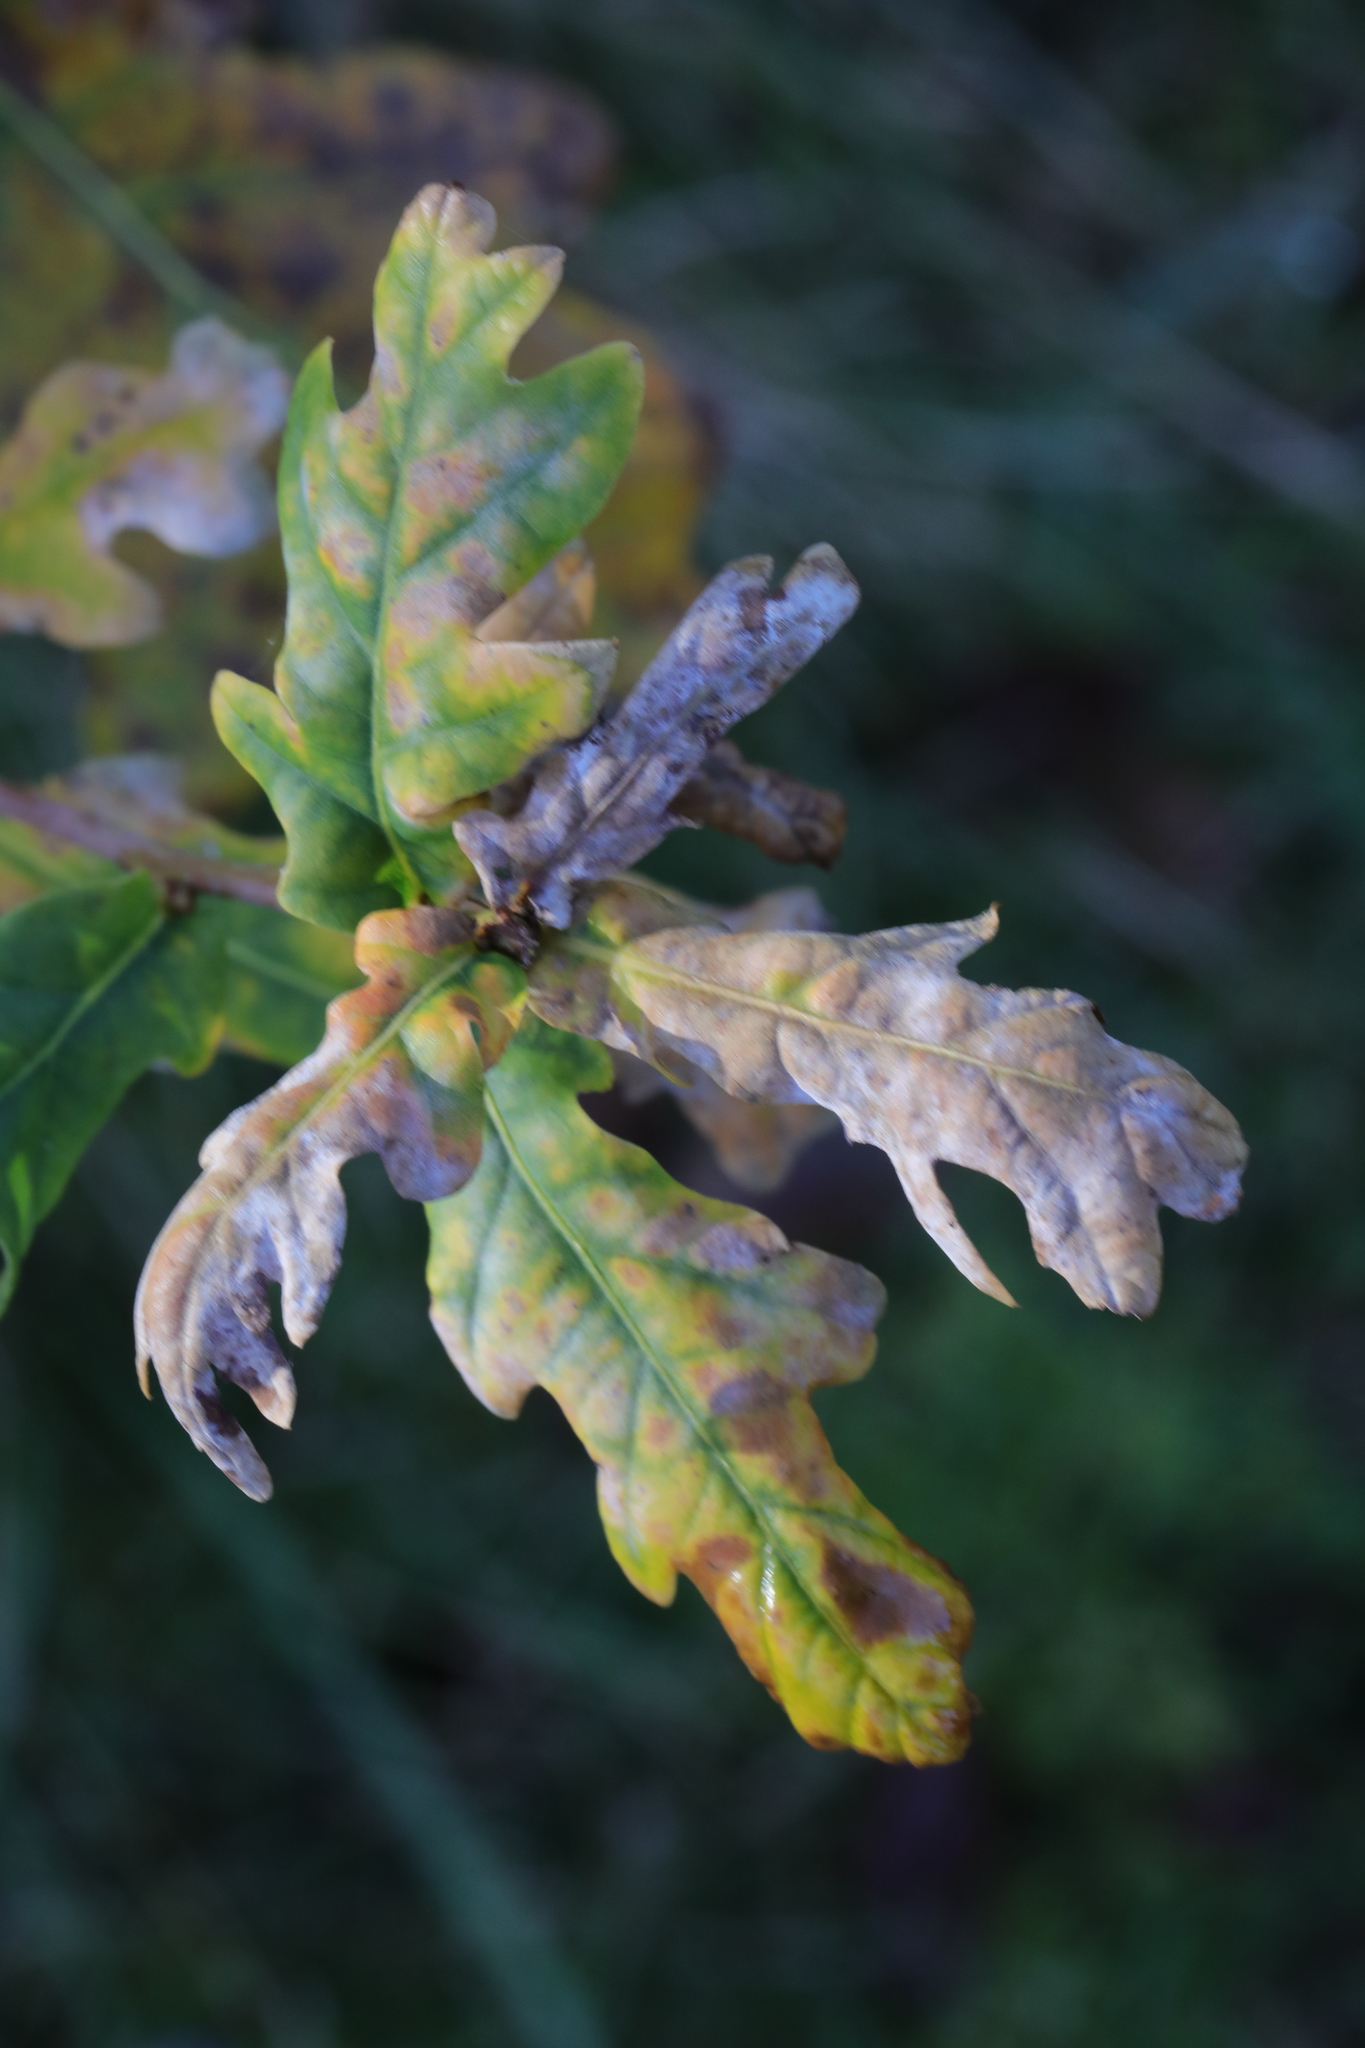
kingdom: Fungi
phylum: Ascomycota
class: Leotiomycetes
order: Helotiales
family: Erysiphaceae
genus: Erysiphe
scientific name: Erysiphe alphitoides
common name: Oak mildew
